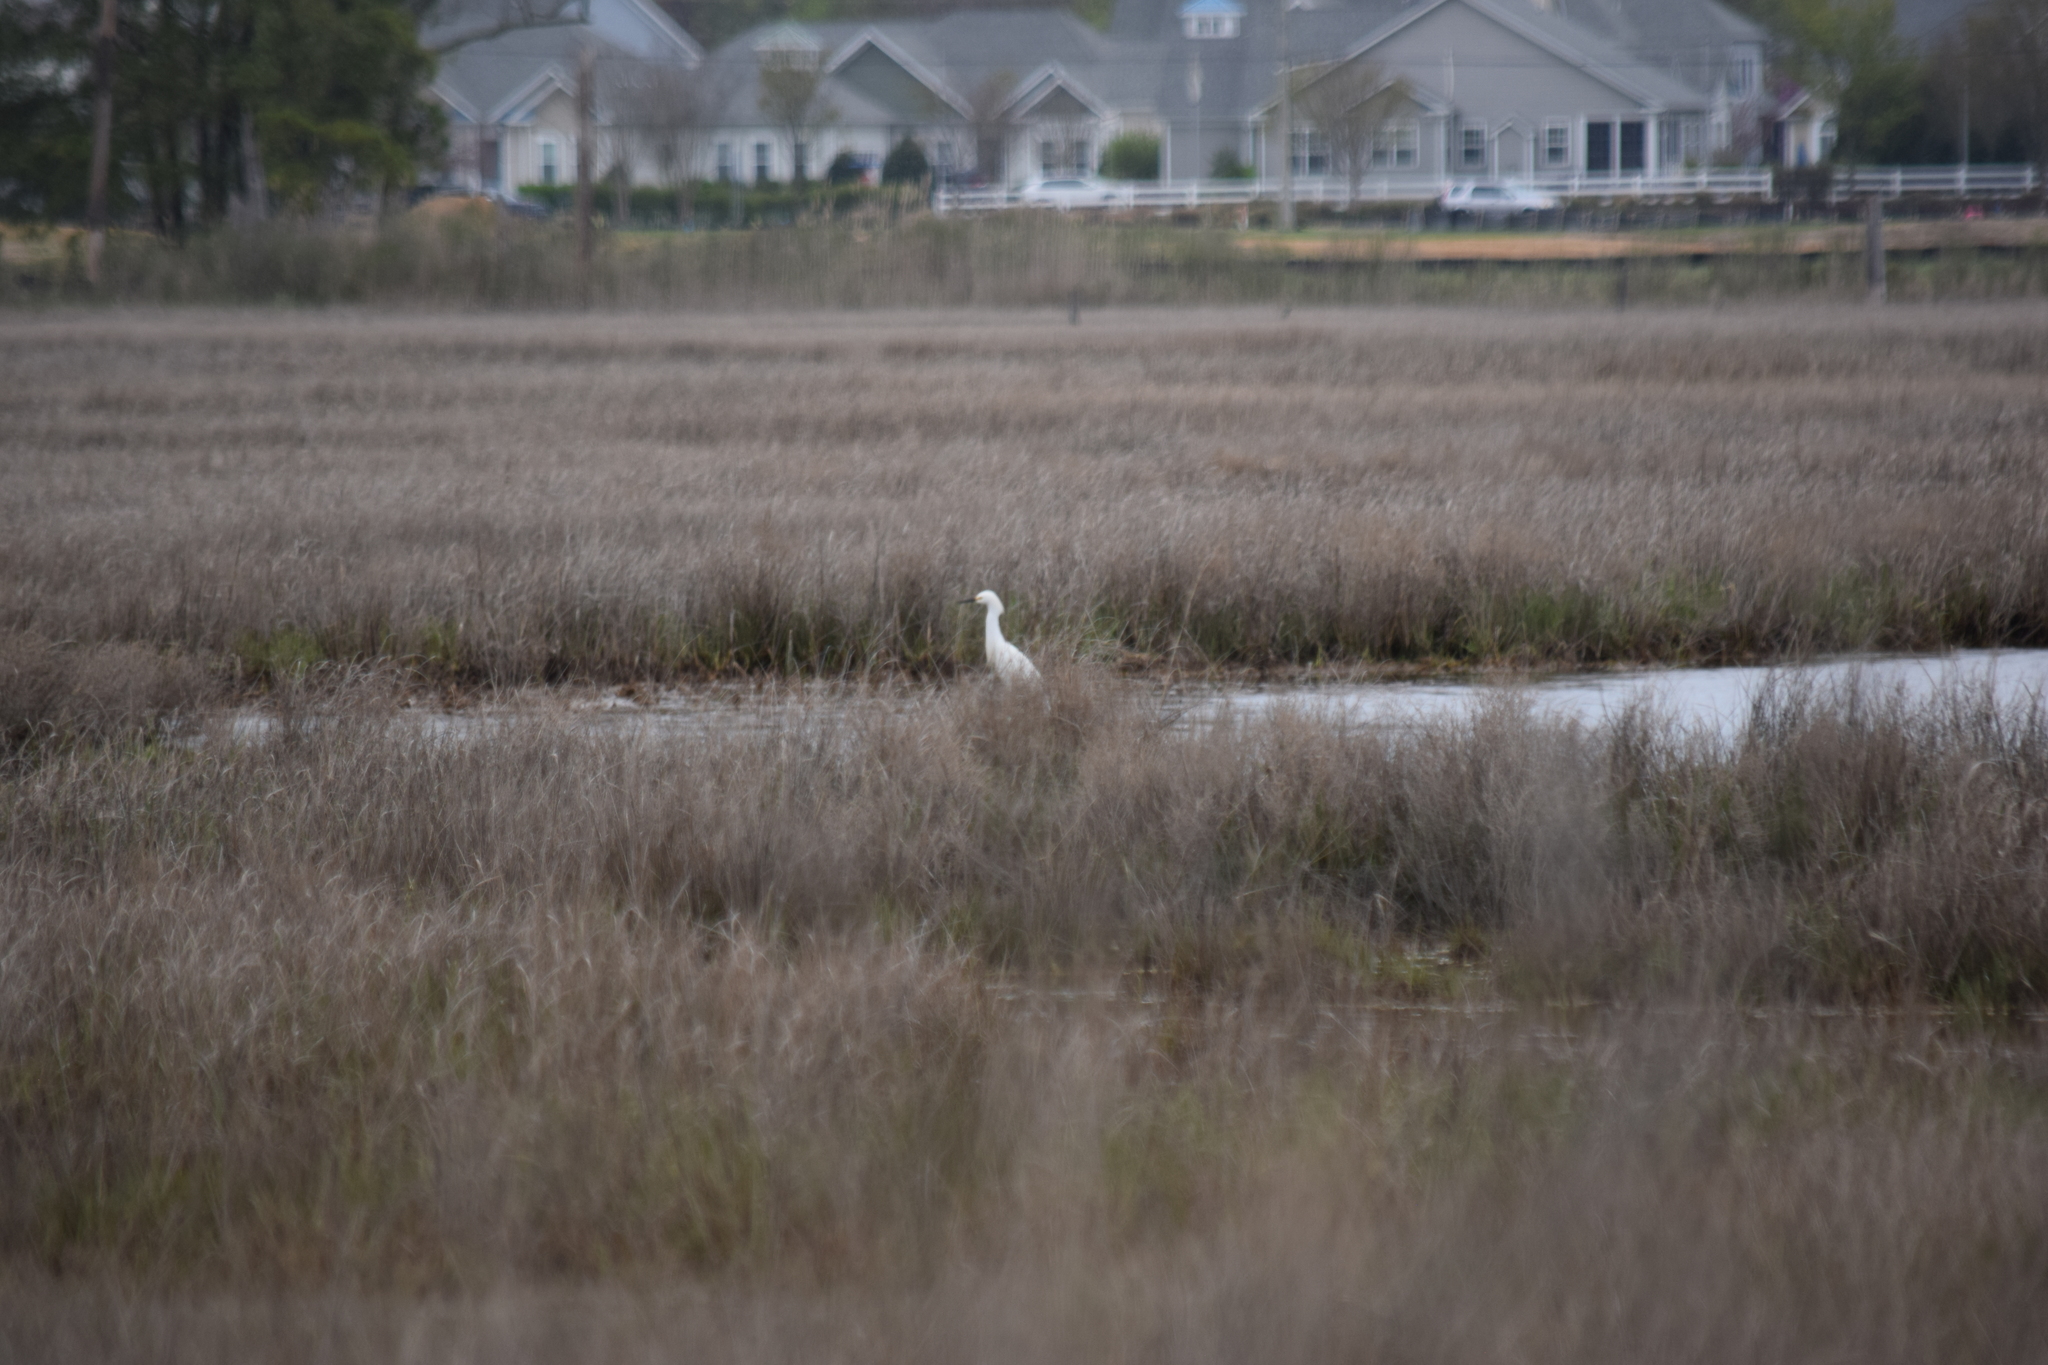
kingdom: Animalia
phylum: Chordata
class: Aves
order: Pelecaniformes
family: Ardeidae
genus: Egretta
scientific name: Egretta thula
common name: Snowy egret
